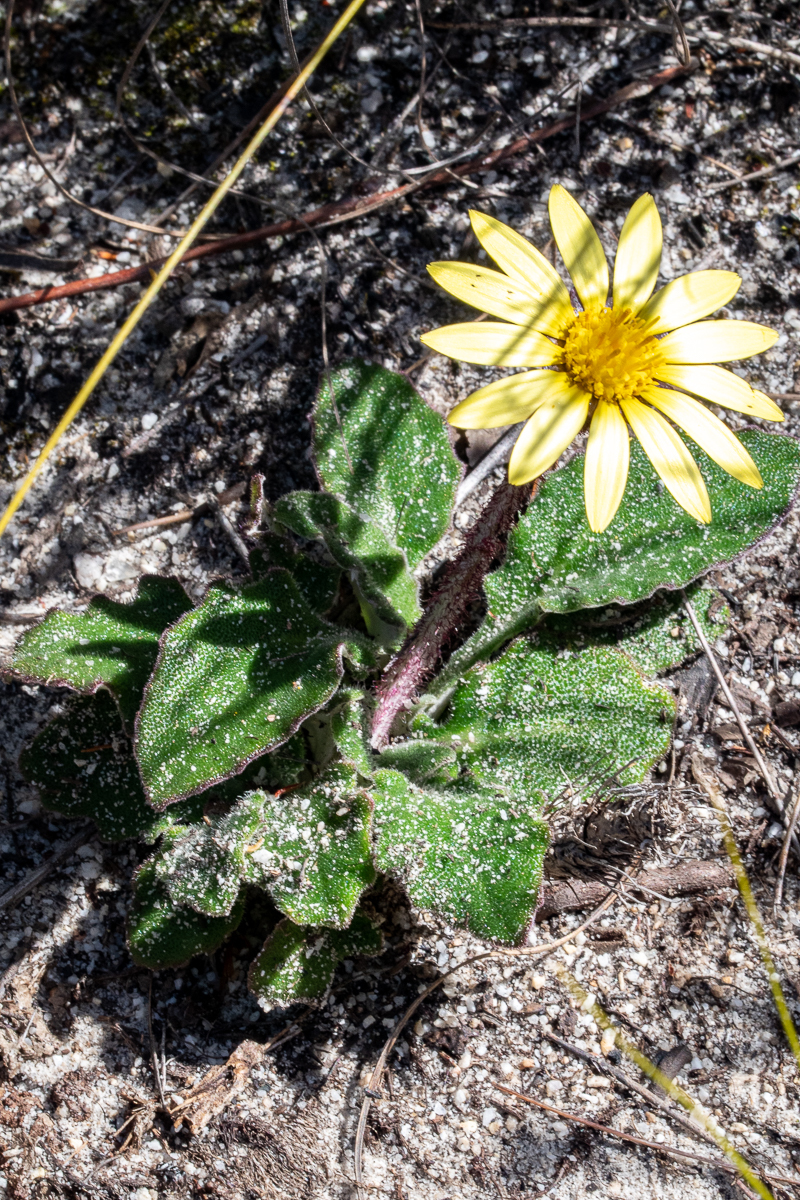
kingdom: Plantae
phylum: Tracheophyta
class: Magnoliopsida
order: Asterales
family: Asteraceae
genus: Haplocarpha
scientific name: Haplocarpha lanata
